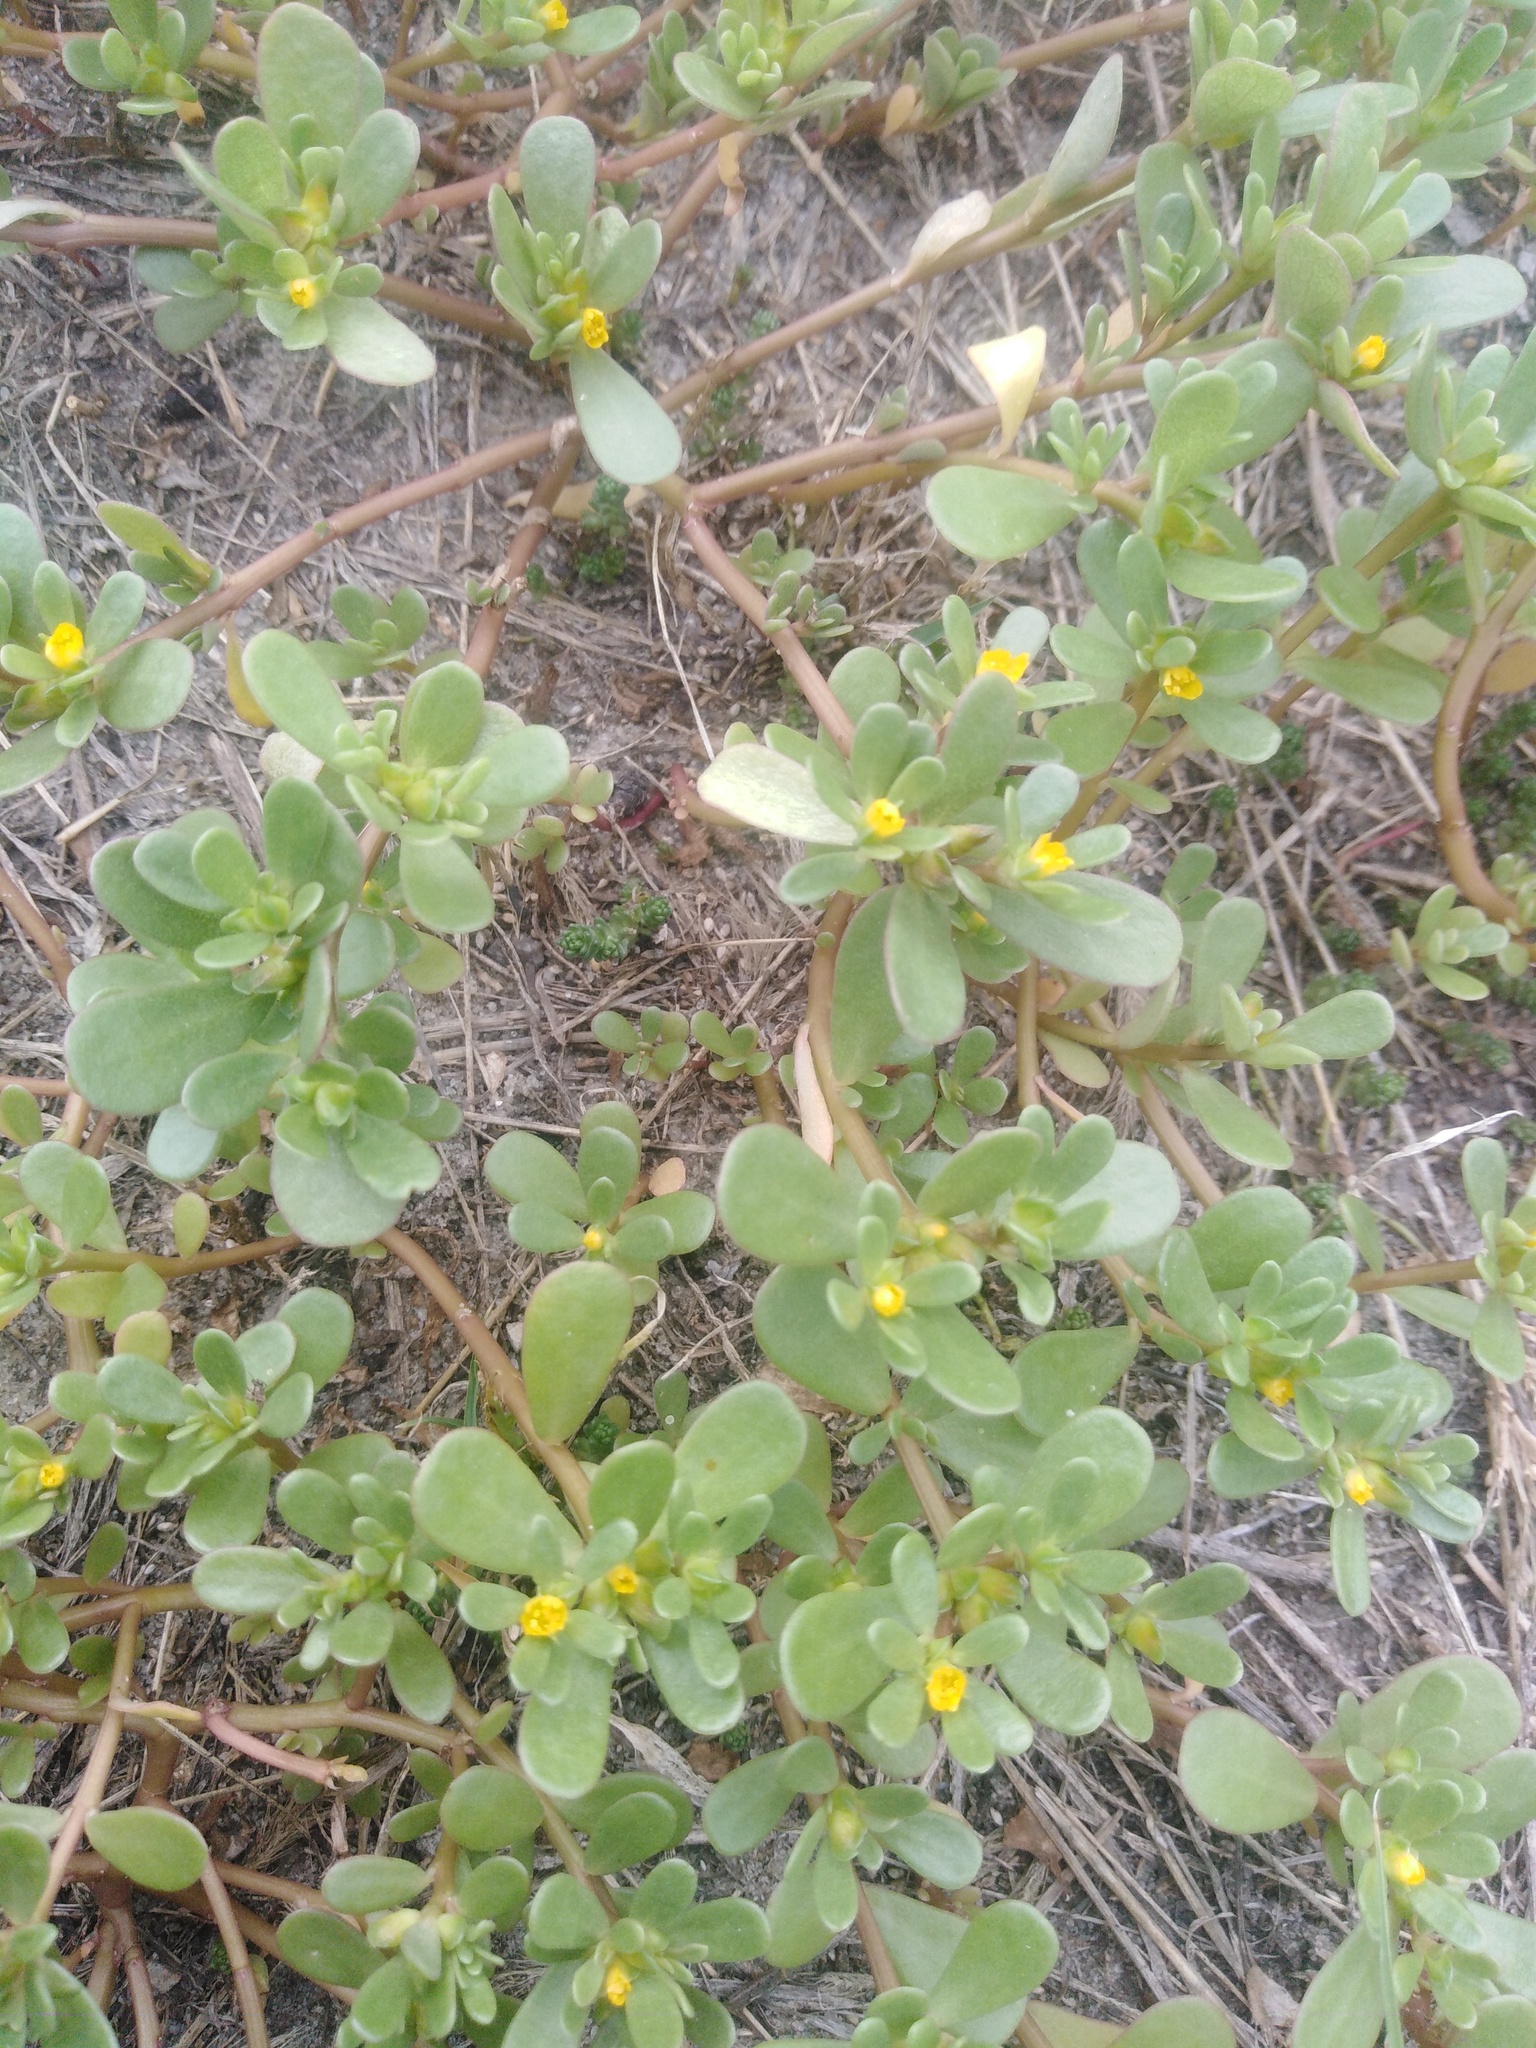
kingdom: Plantae
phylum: Tracheophyta
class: Magnoliopsida
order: Caryophyllales
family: Portulacaceae
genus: Portulaca
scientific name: Portulaca oleracea
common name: Common purslane
